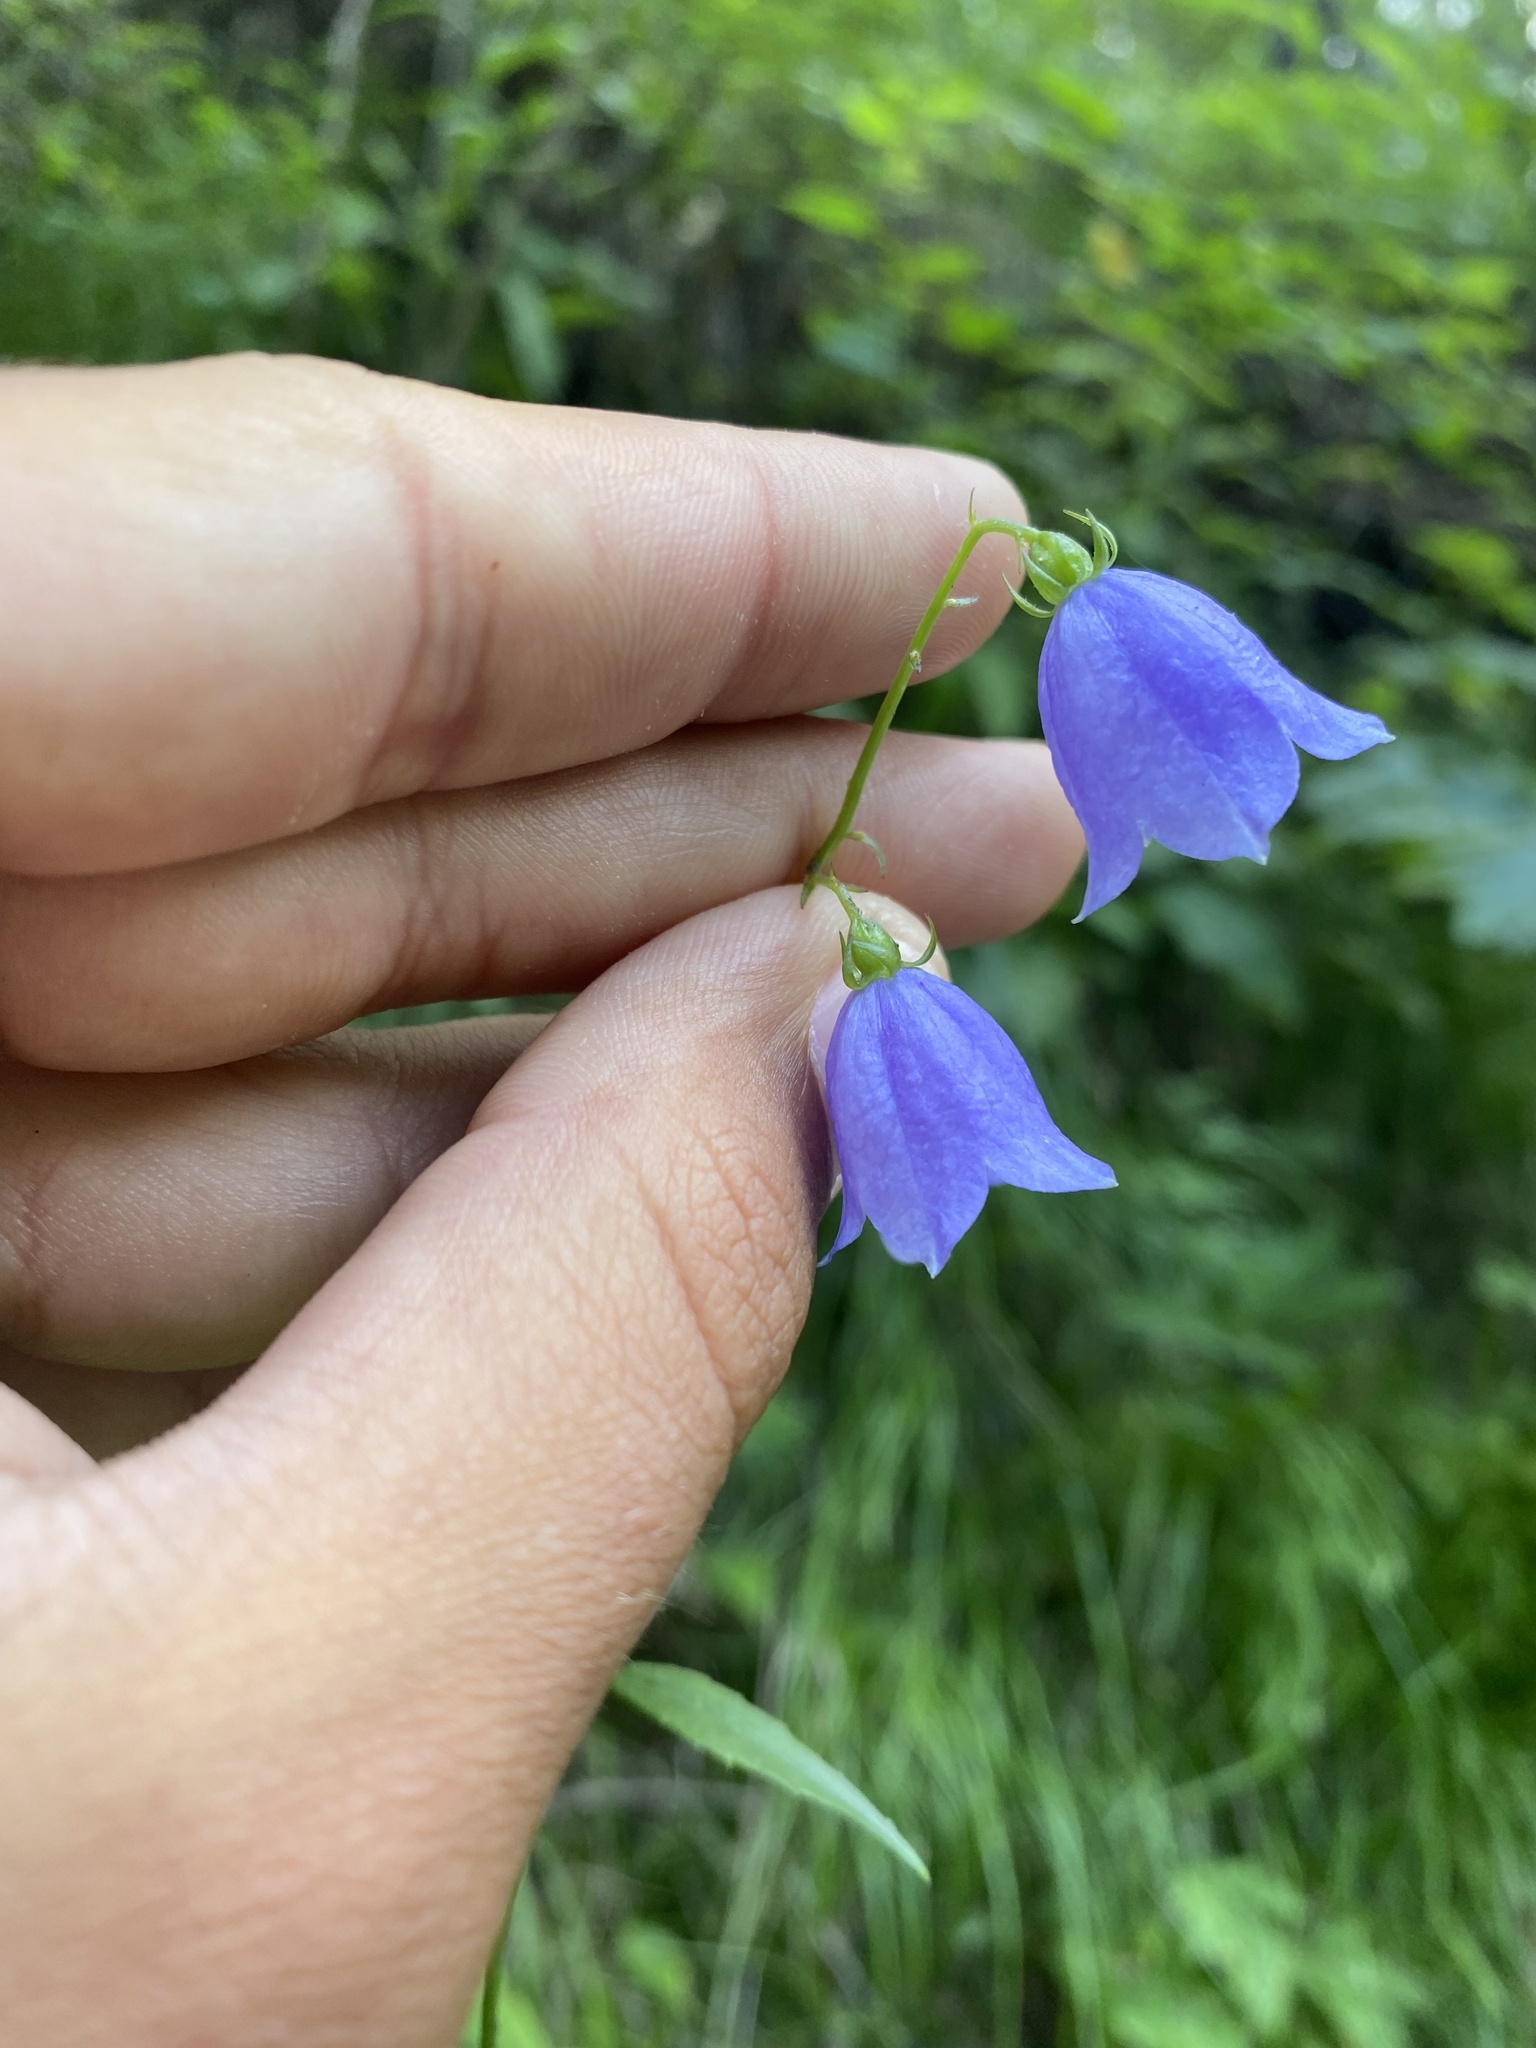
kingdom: Plantae
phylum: Tracheophyta
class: Magnoliopsida
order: Asterales
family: Campanulaceae
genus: Adenophora
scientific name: Adenophora lamarckii
